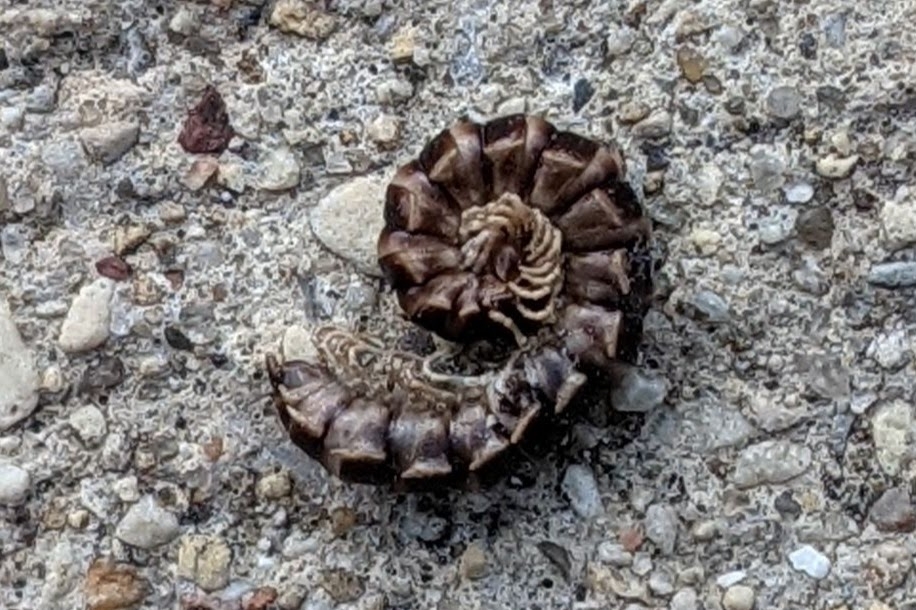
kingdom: Animalia
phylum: Arthropoda
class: Diplopoda
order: Polydesmida
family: Paradoxosomatidae
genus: Oxidus
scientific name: Oxidus gracilis
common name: Greenhouse millipede
